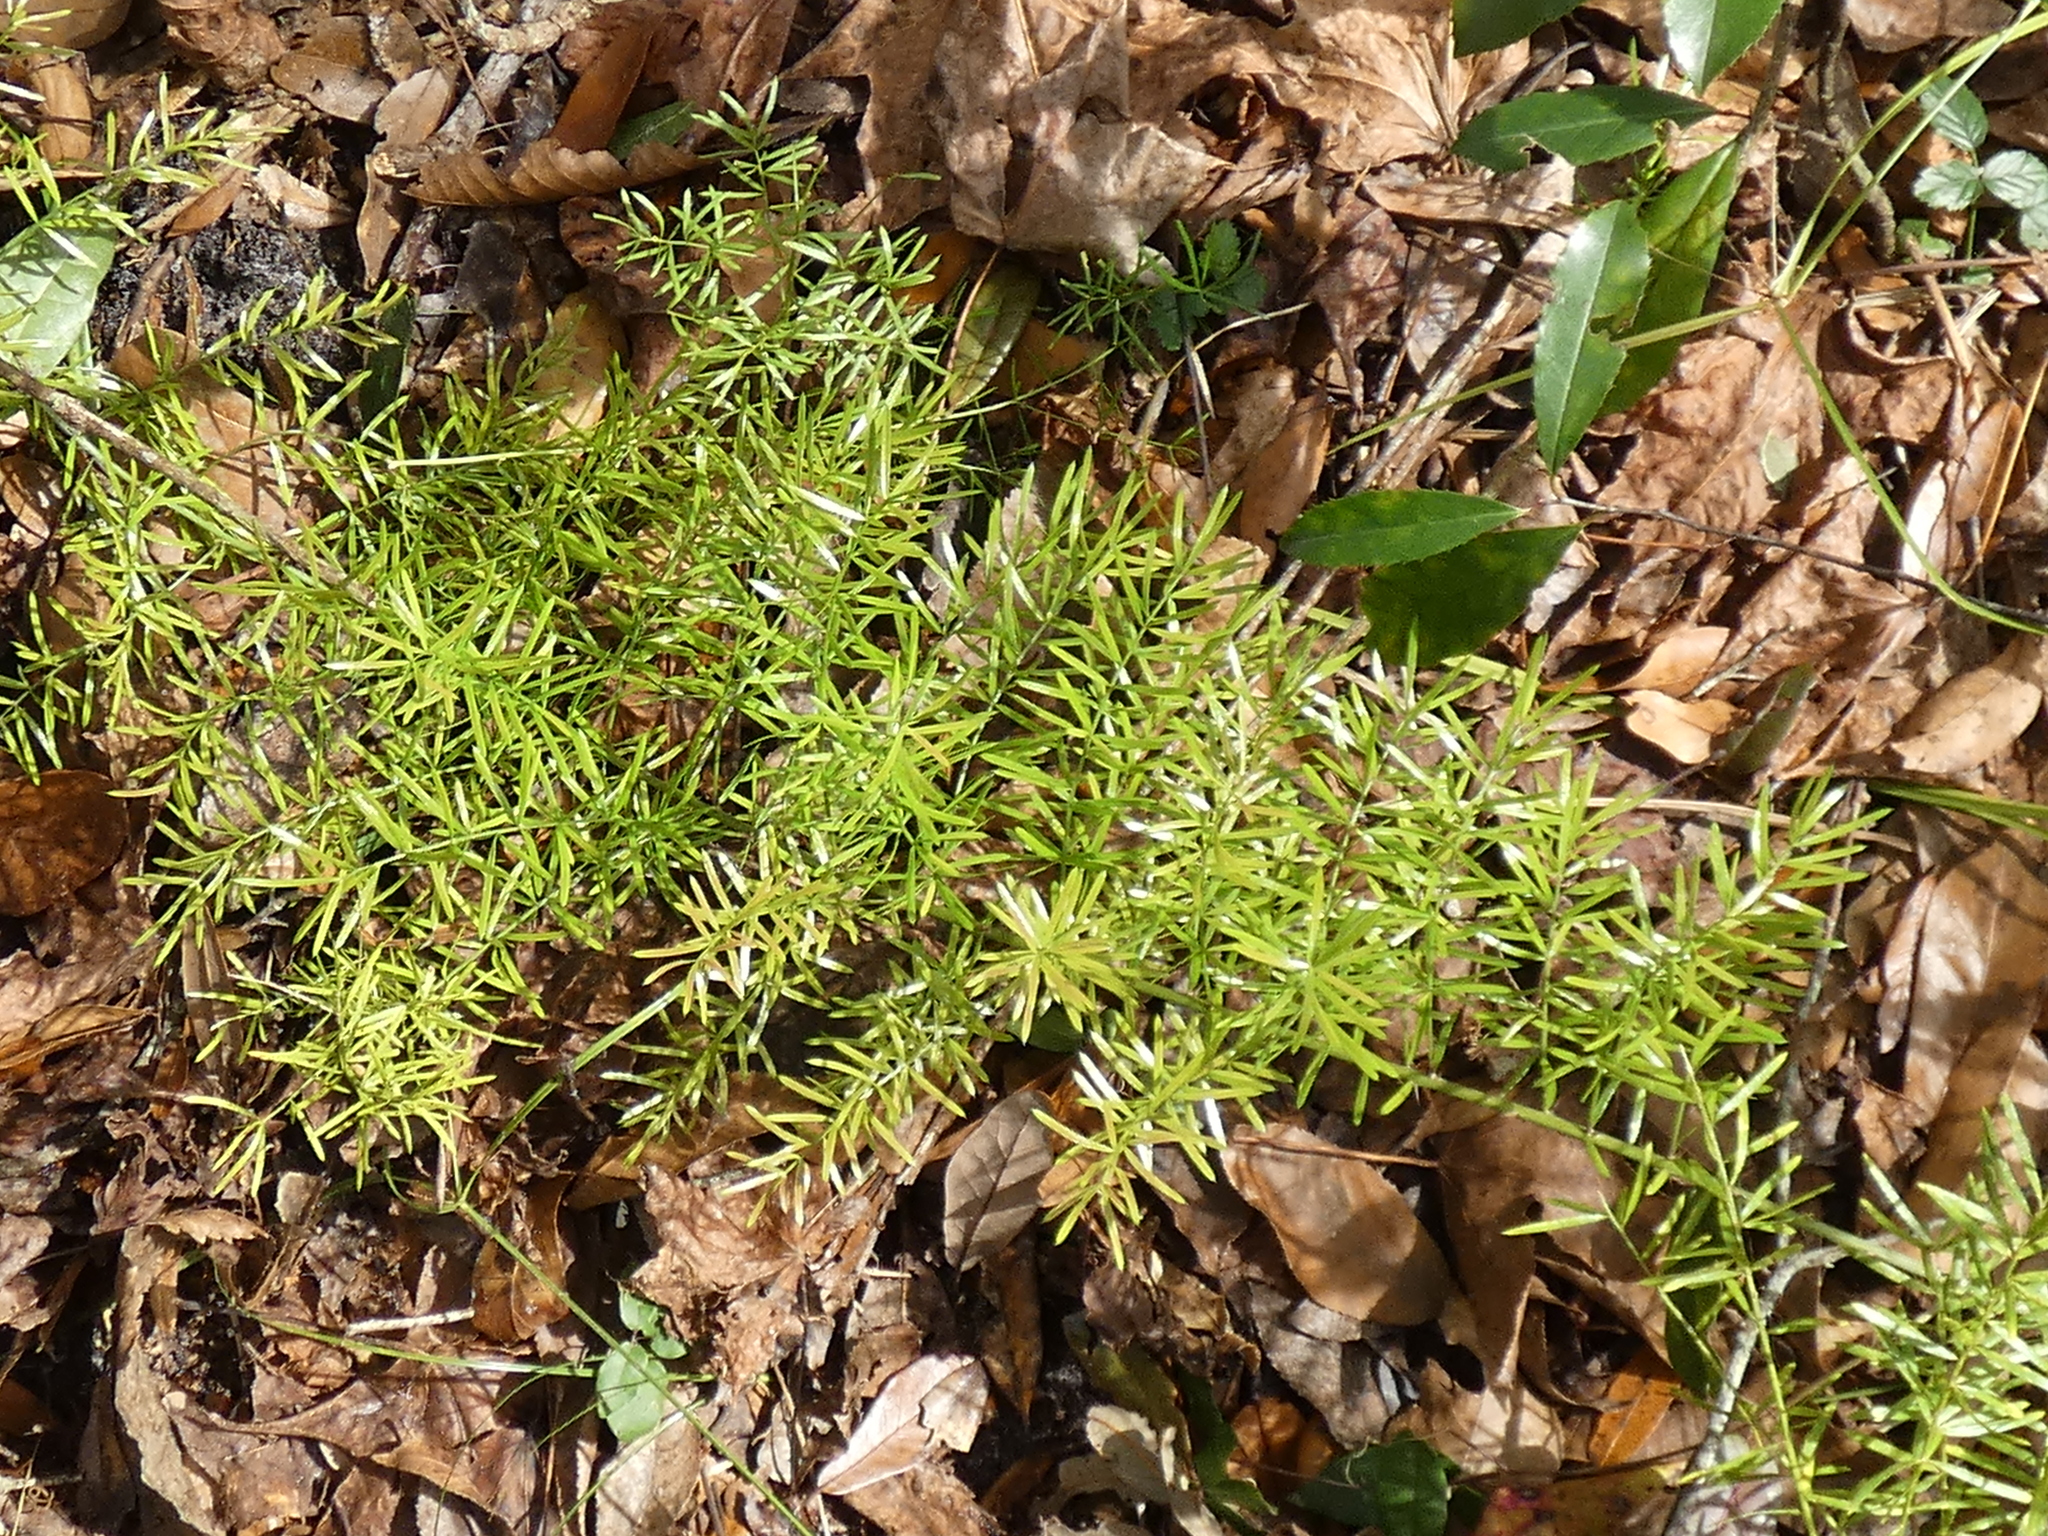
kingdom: Plantae
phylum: Tracheophyta
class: Liliopsida
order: Asparagales
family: Asparagaceae
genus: Asparagus
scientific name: Asparagus aethiopicus
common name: Sprenger's asparagus fern
